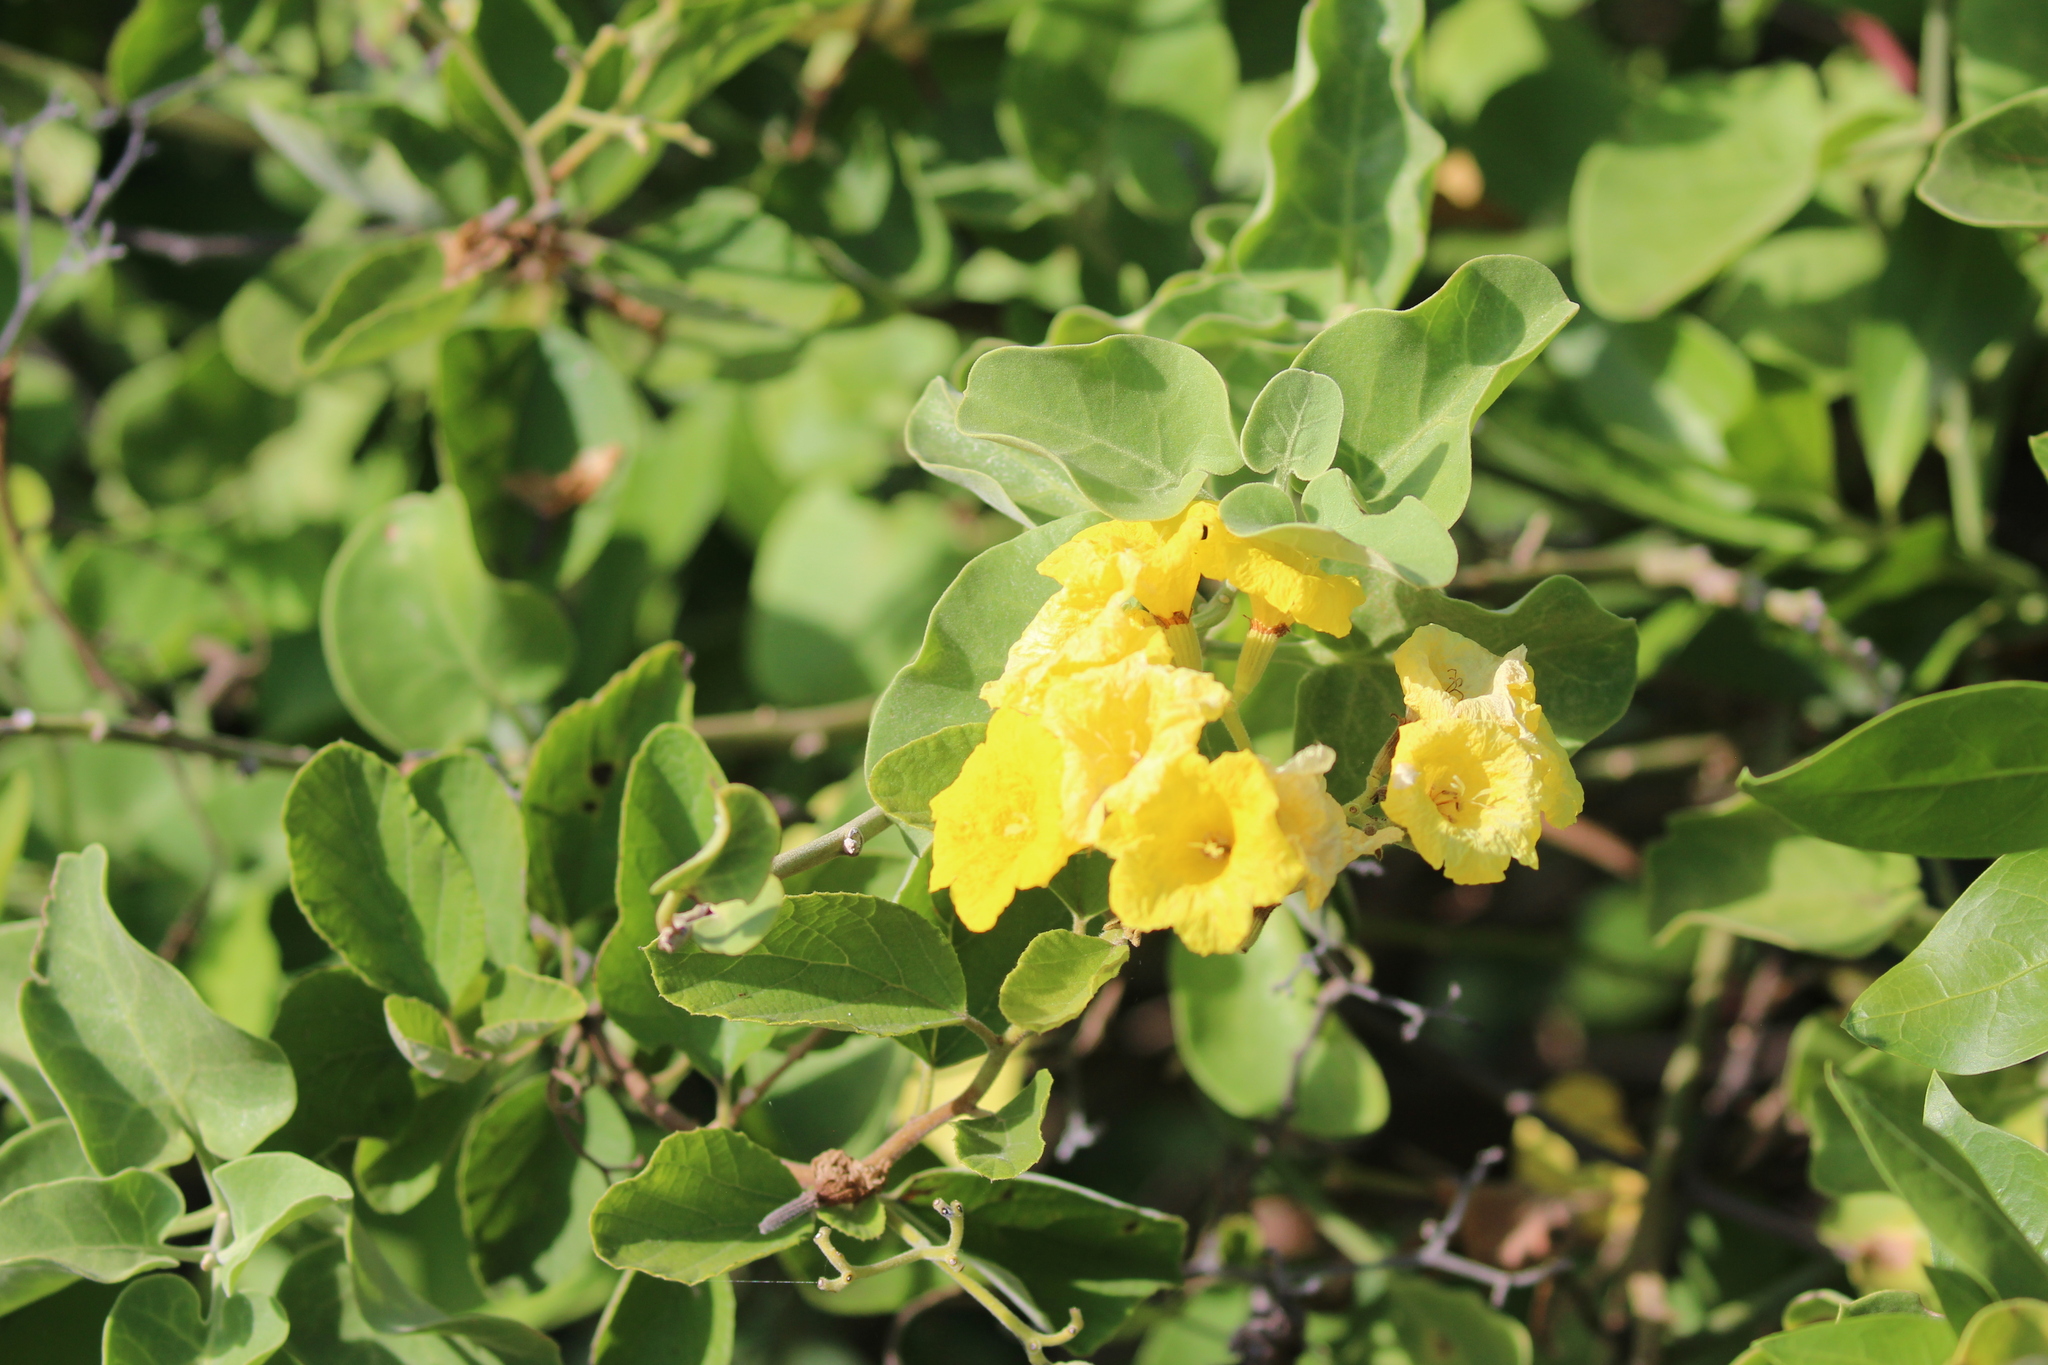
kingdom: Plantae
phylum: Tracheophyta
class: Magnoliopsida
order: Boraginales
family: Cordiaceae
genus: Cordia
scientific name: Cordia lutea
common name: Yellow geiger
